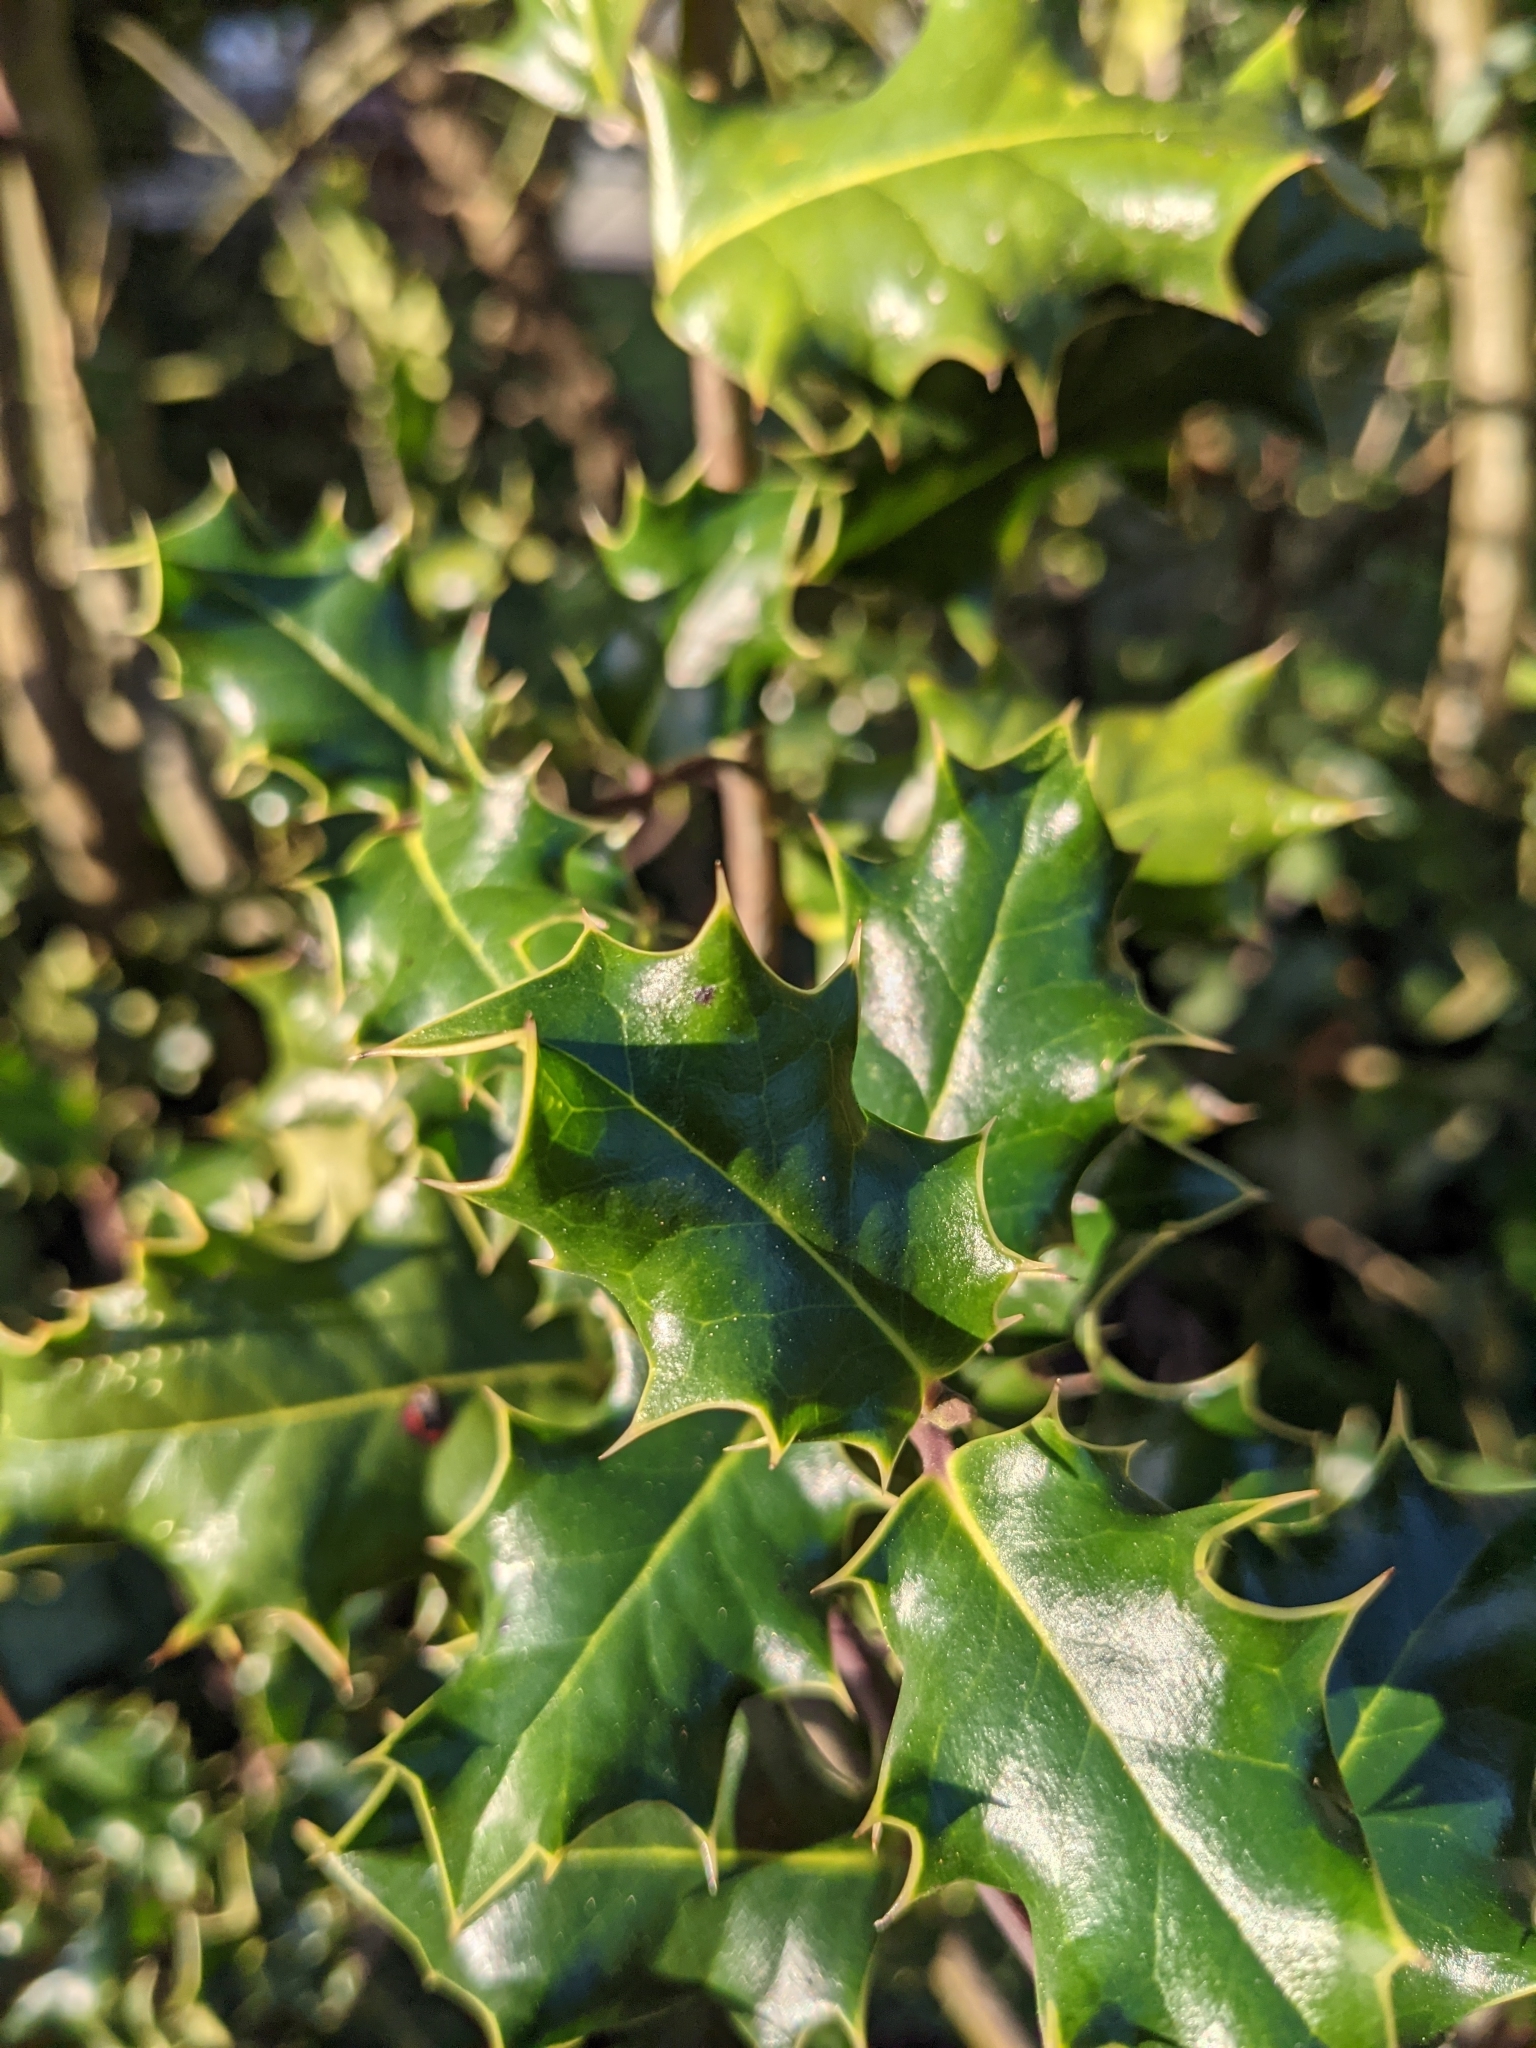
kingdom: Plantae
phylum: Tracheophyta
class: Magnoliopsida
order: Aquifoliales
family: Aquifoliaceae
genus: Ilex
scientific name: Ilex aquifolium
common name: English holly
